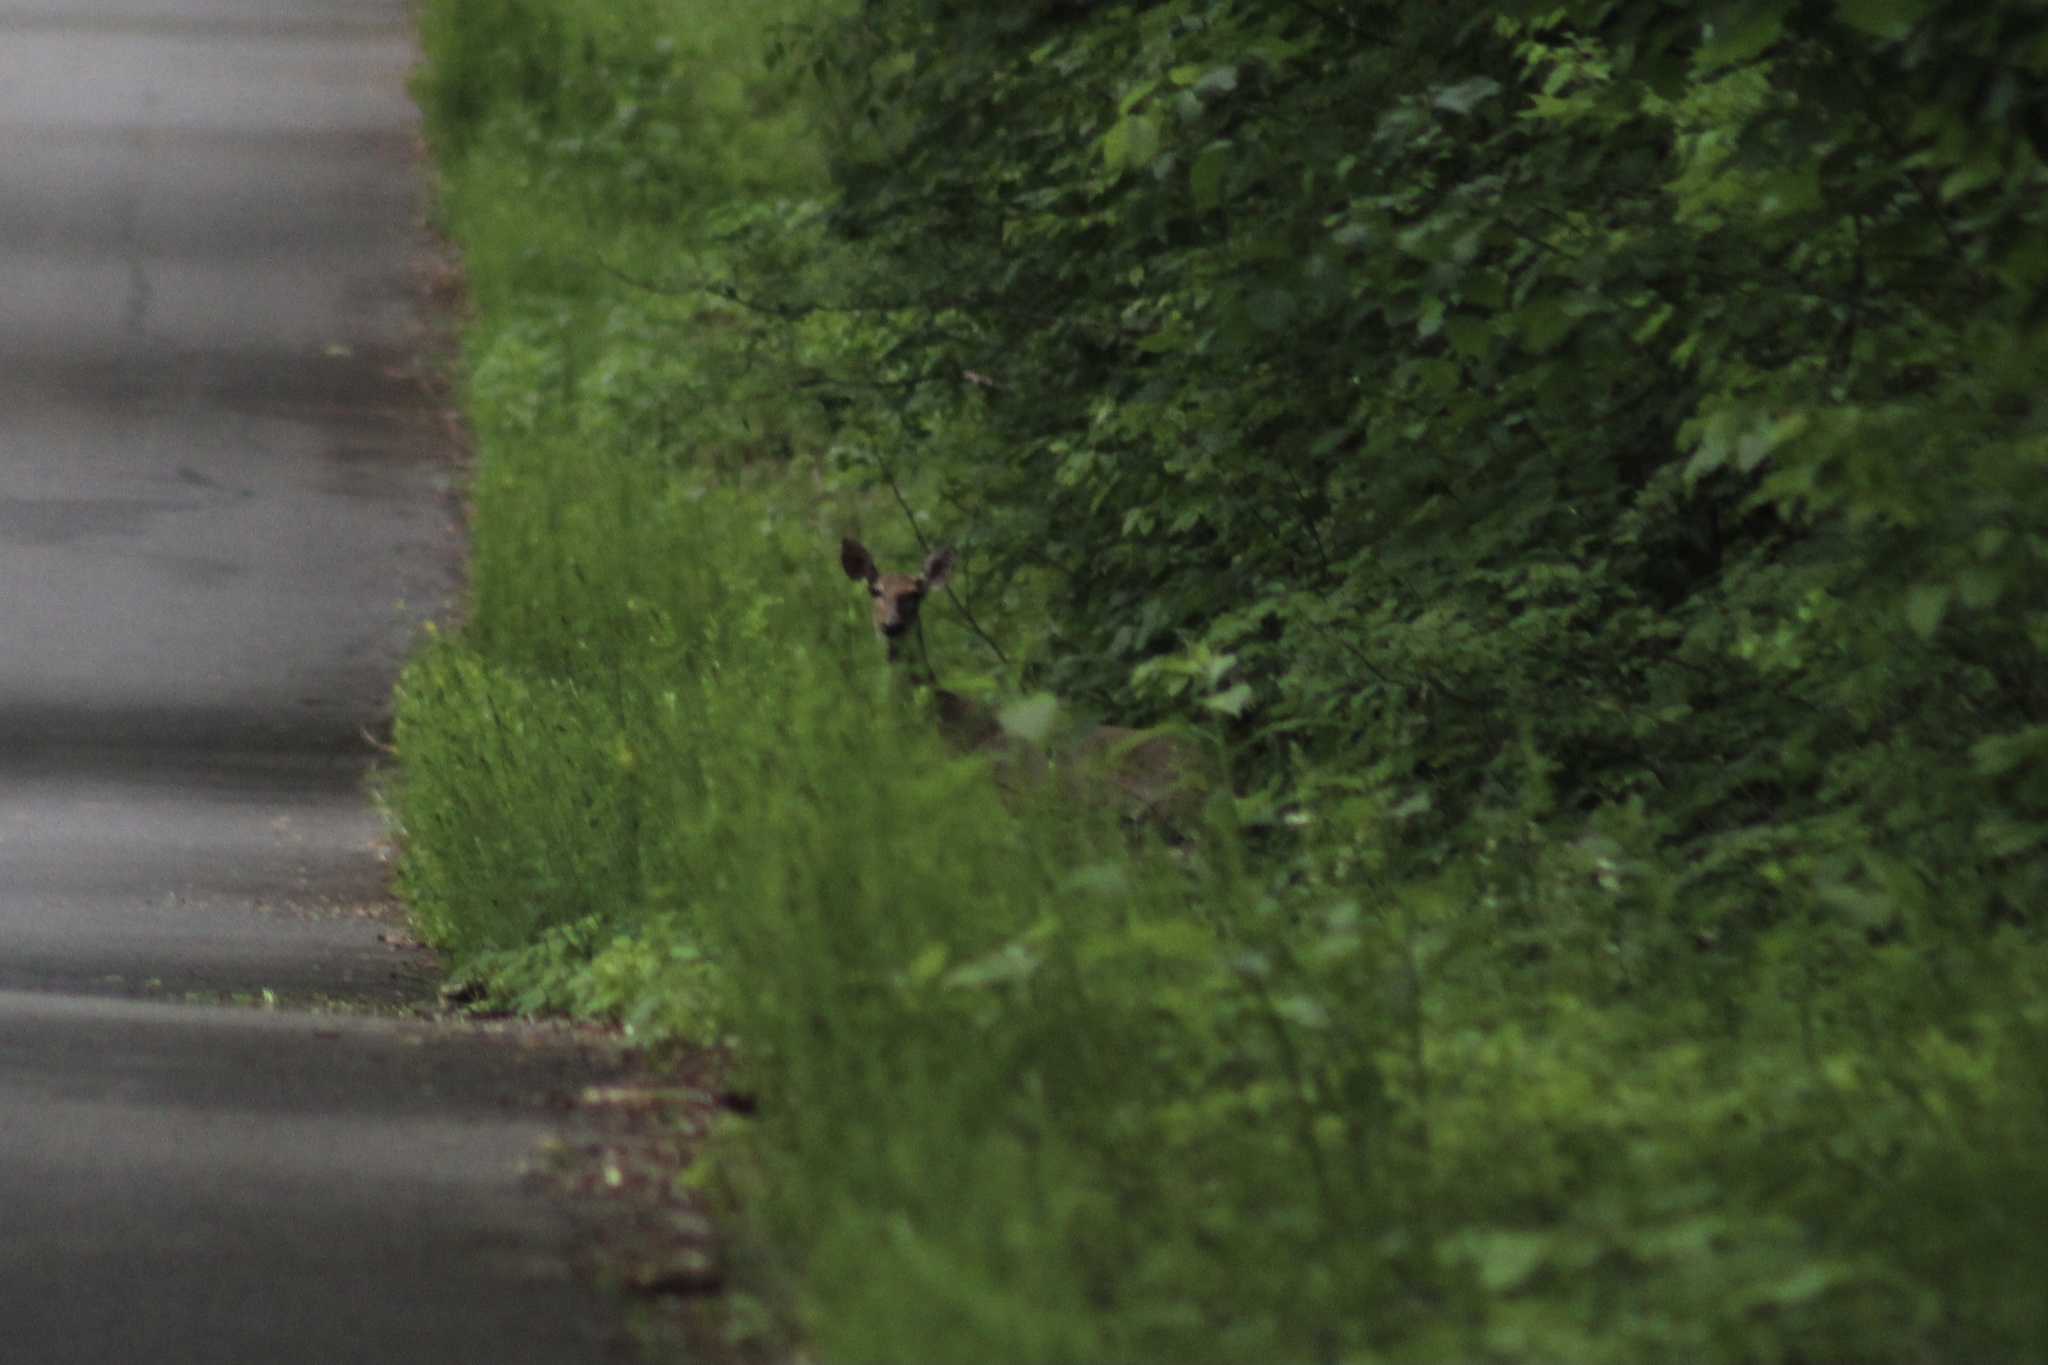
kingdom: Animalia
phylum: Chordata
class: Mammalia
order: Artiodactyla
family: Cervidae
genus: Odocoileus
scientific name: Odocoileus virginianus
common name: White-tailed deer
